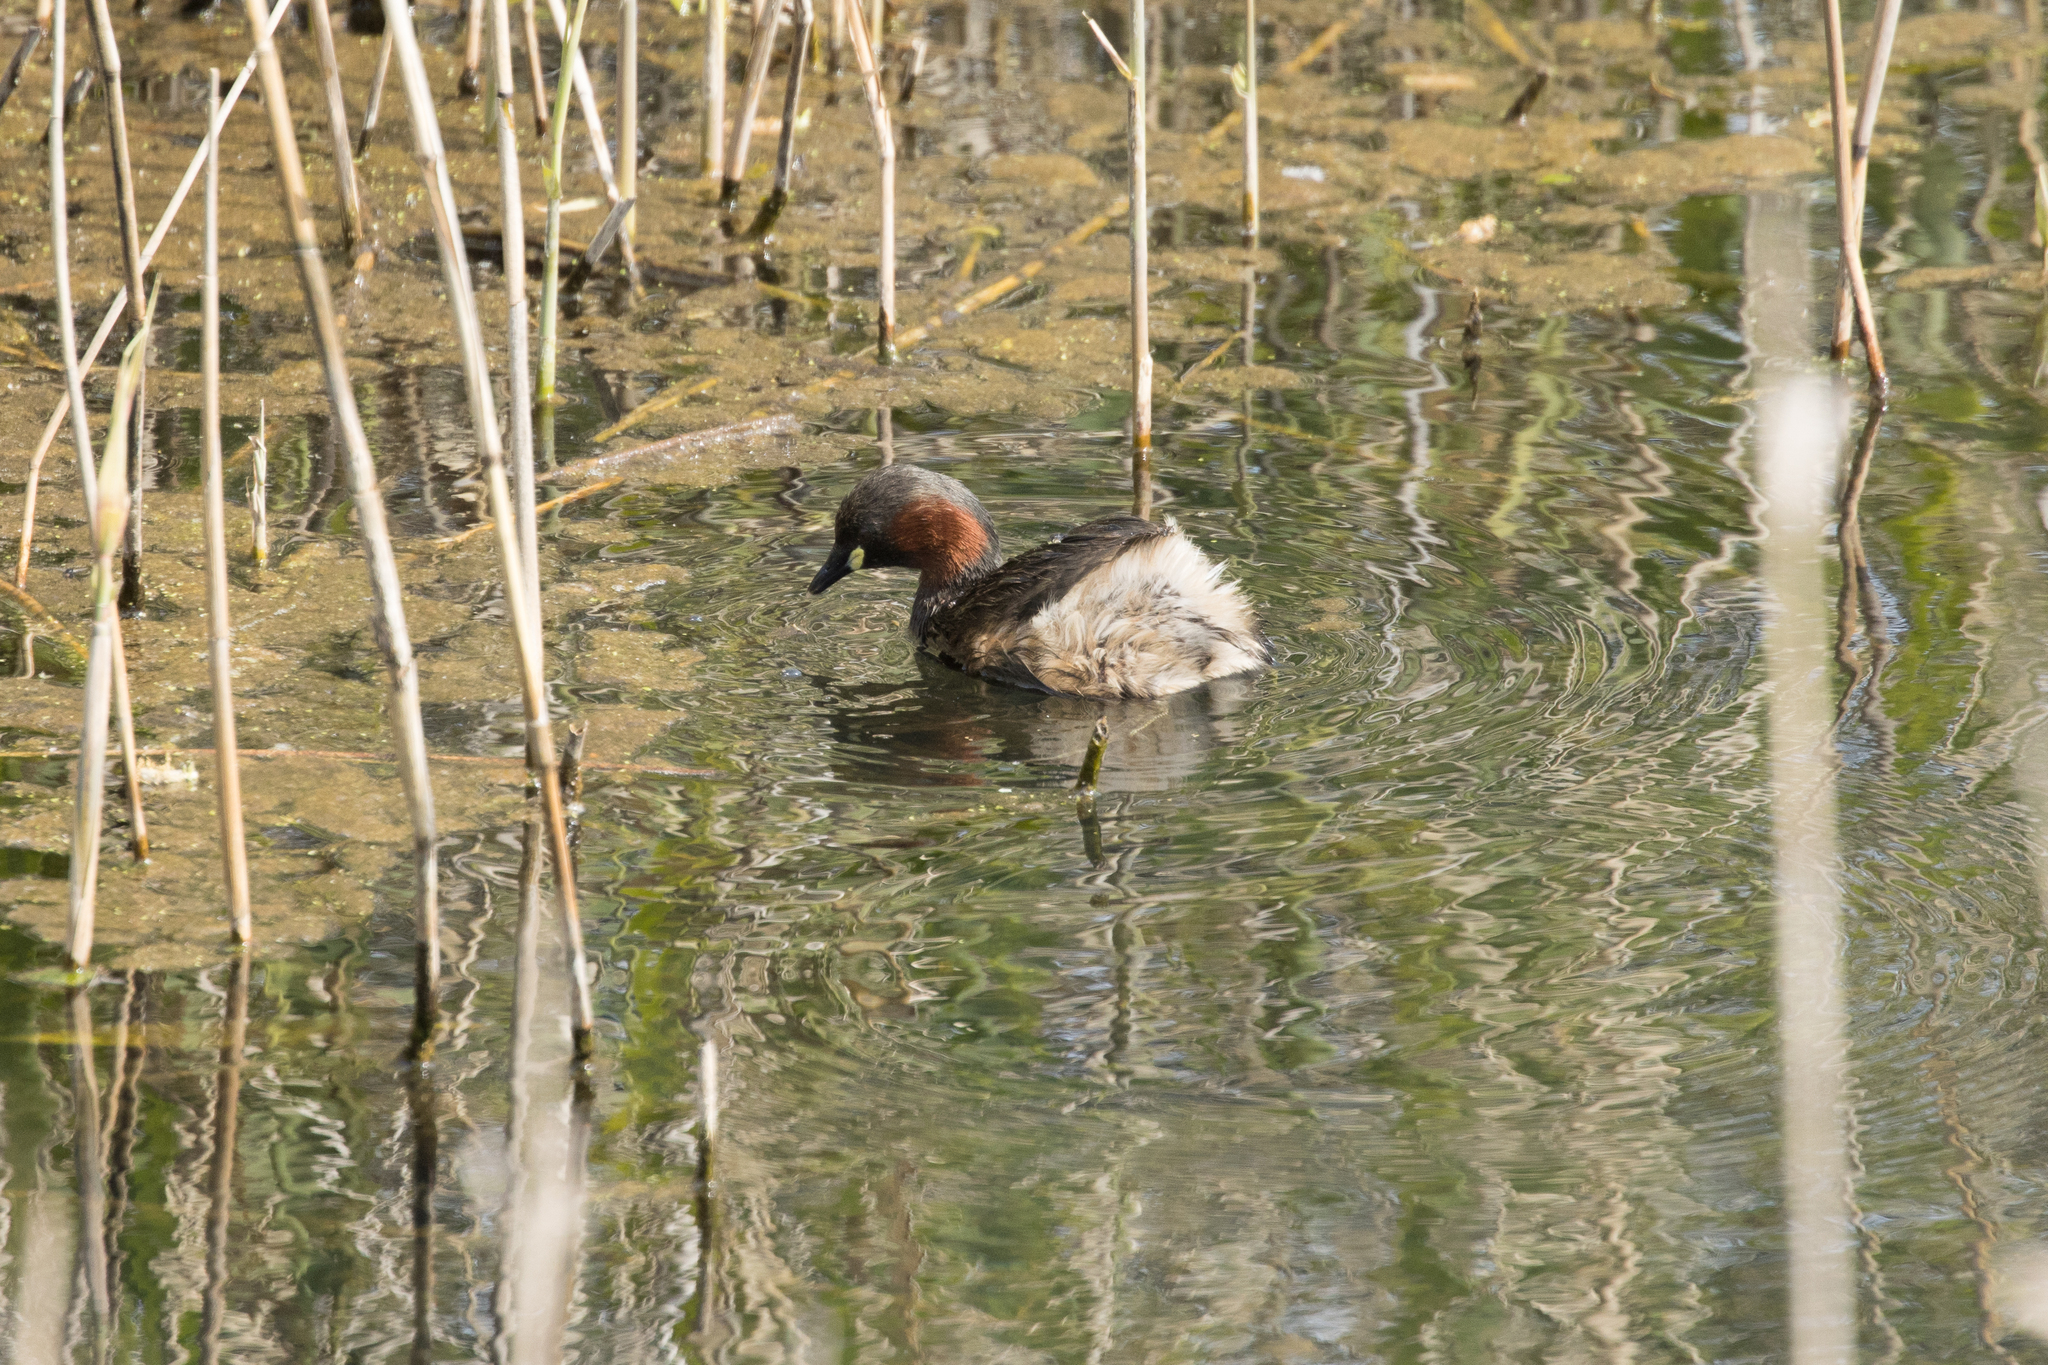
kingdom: Animalia
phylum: Chordata
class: Aves
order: Podicipediformes
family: Podicipedidae
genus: Tachybaptus
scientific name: Tachybaptus ruficollis
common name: Little grebe
